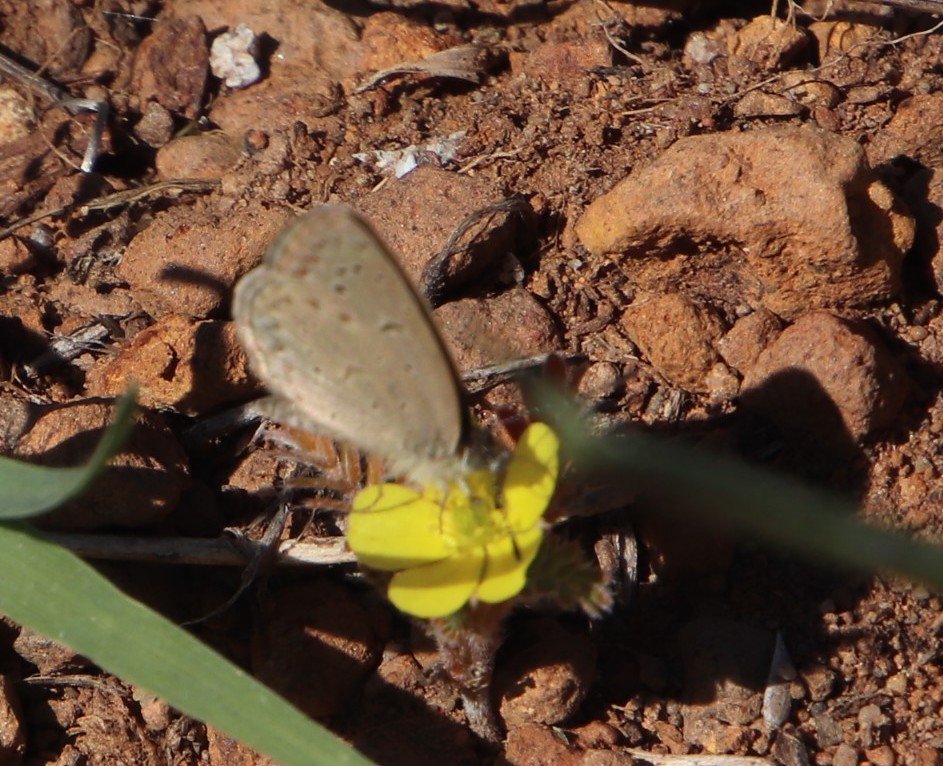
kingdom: Animalia
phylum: Arthropoda
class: Insecta
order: Lepidoptera
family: Lycaenidae
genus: Zizeeria
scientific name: Zizeeria knysna
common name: African grass blue
